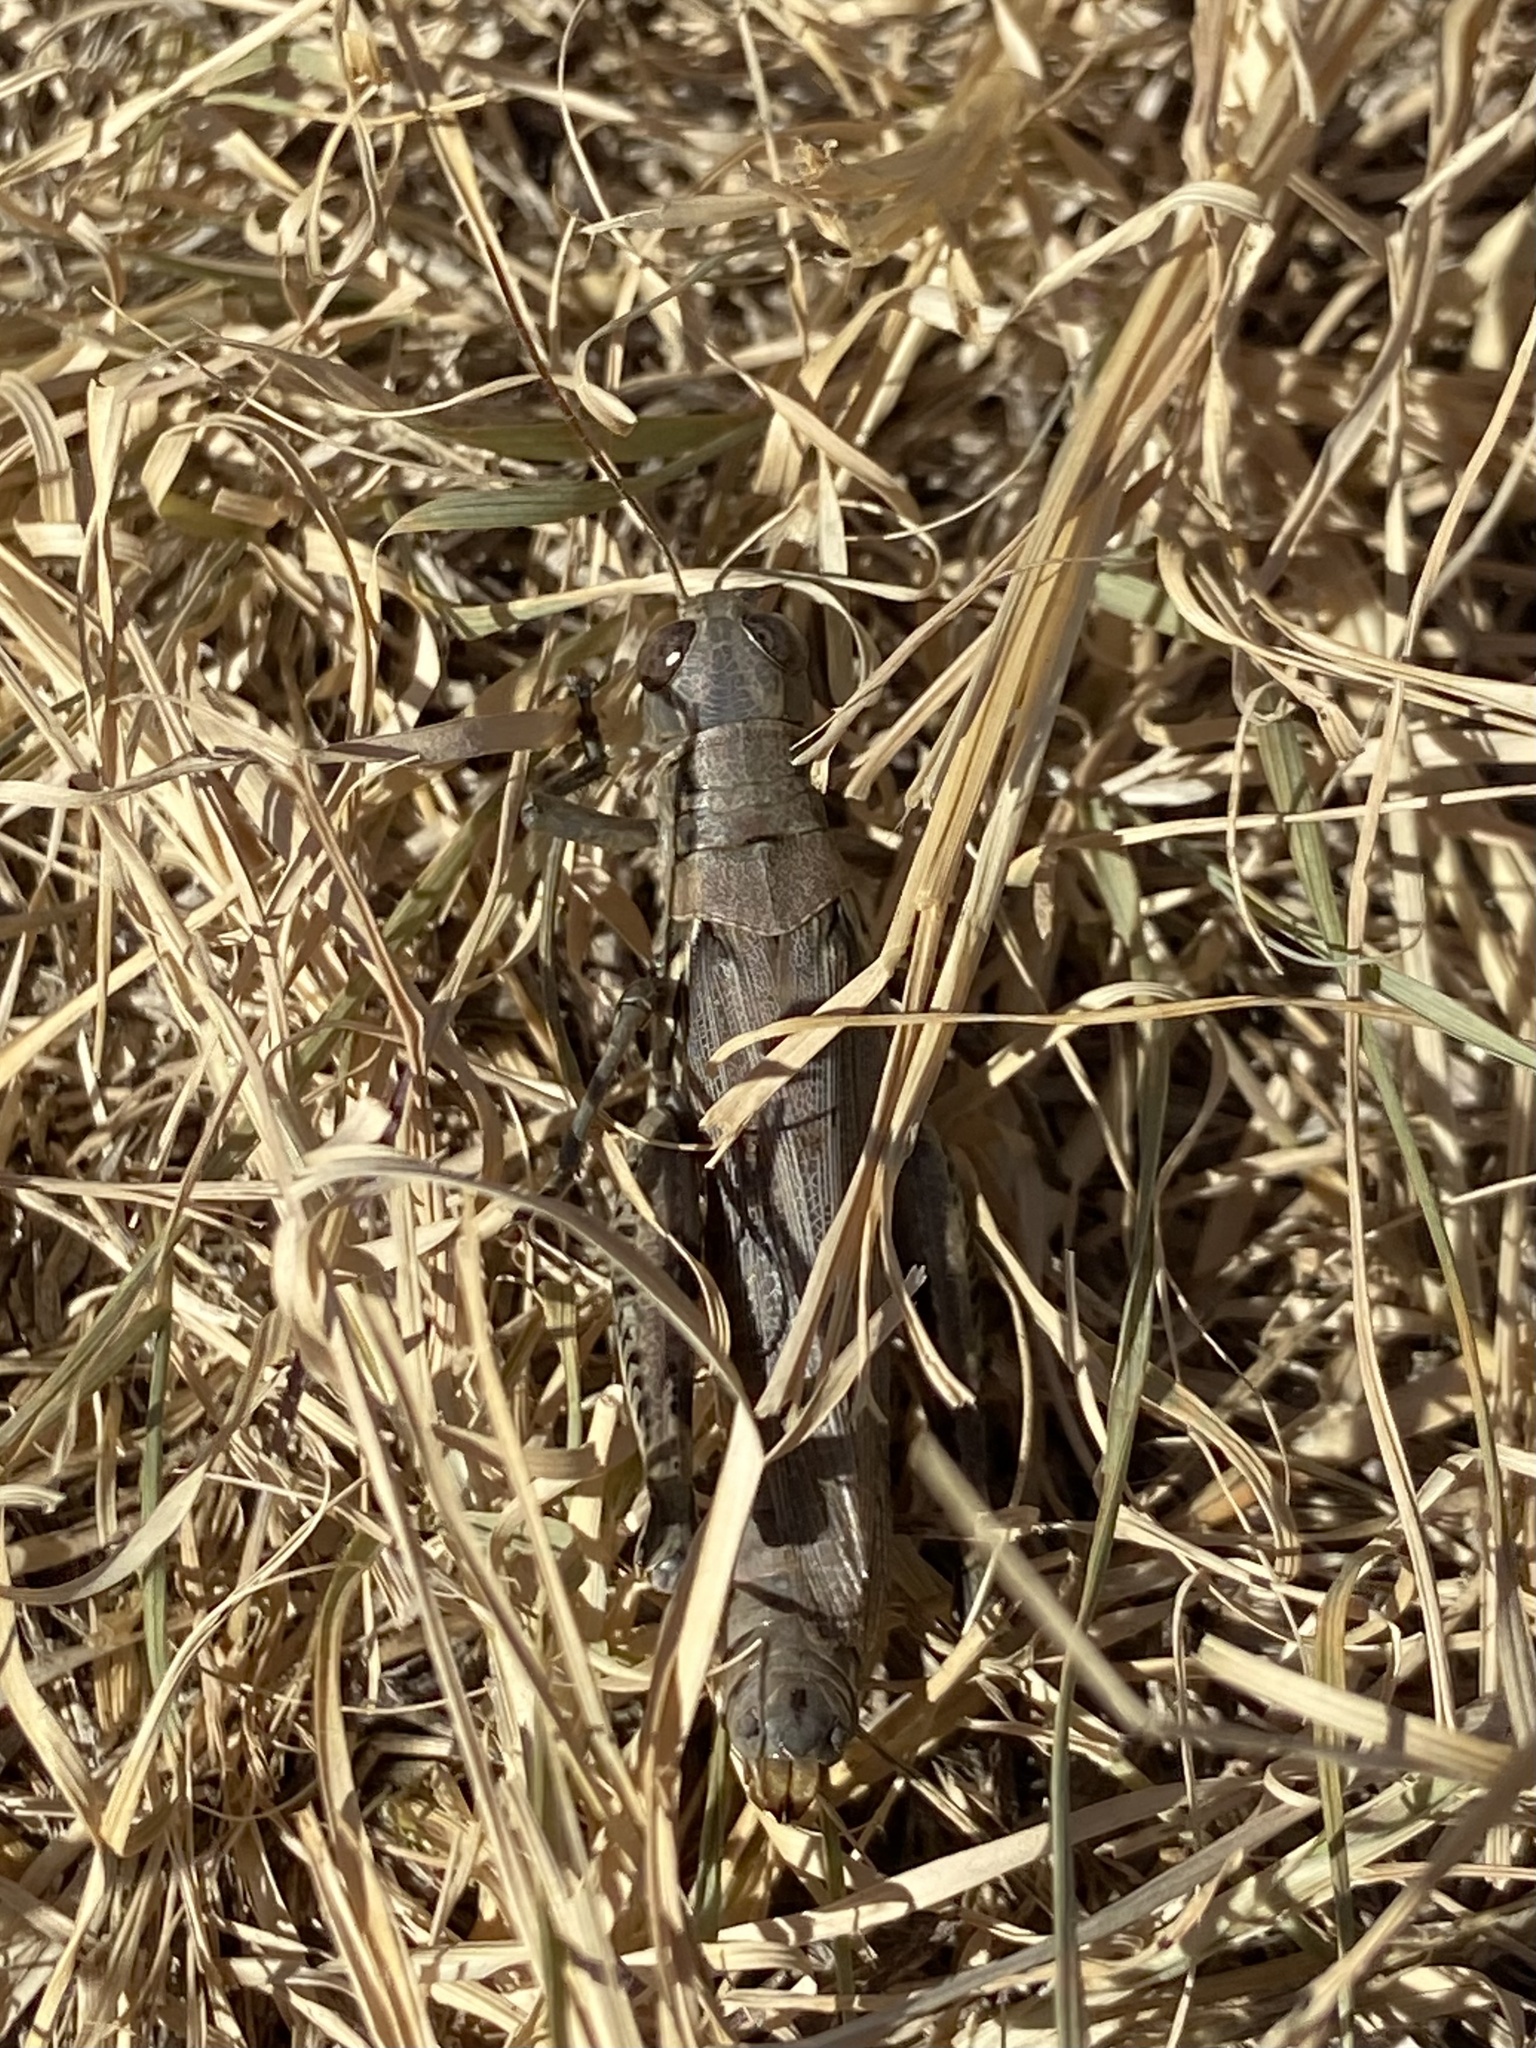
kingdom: Animalia
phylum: Arthropoda
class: Insecta
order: Orthoptera
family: Acrididae
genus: Melanoplus
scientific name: Melanoplus differentialis
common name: Differential grasshopper
